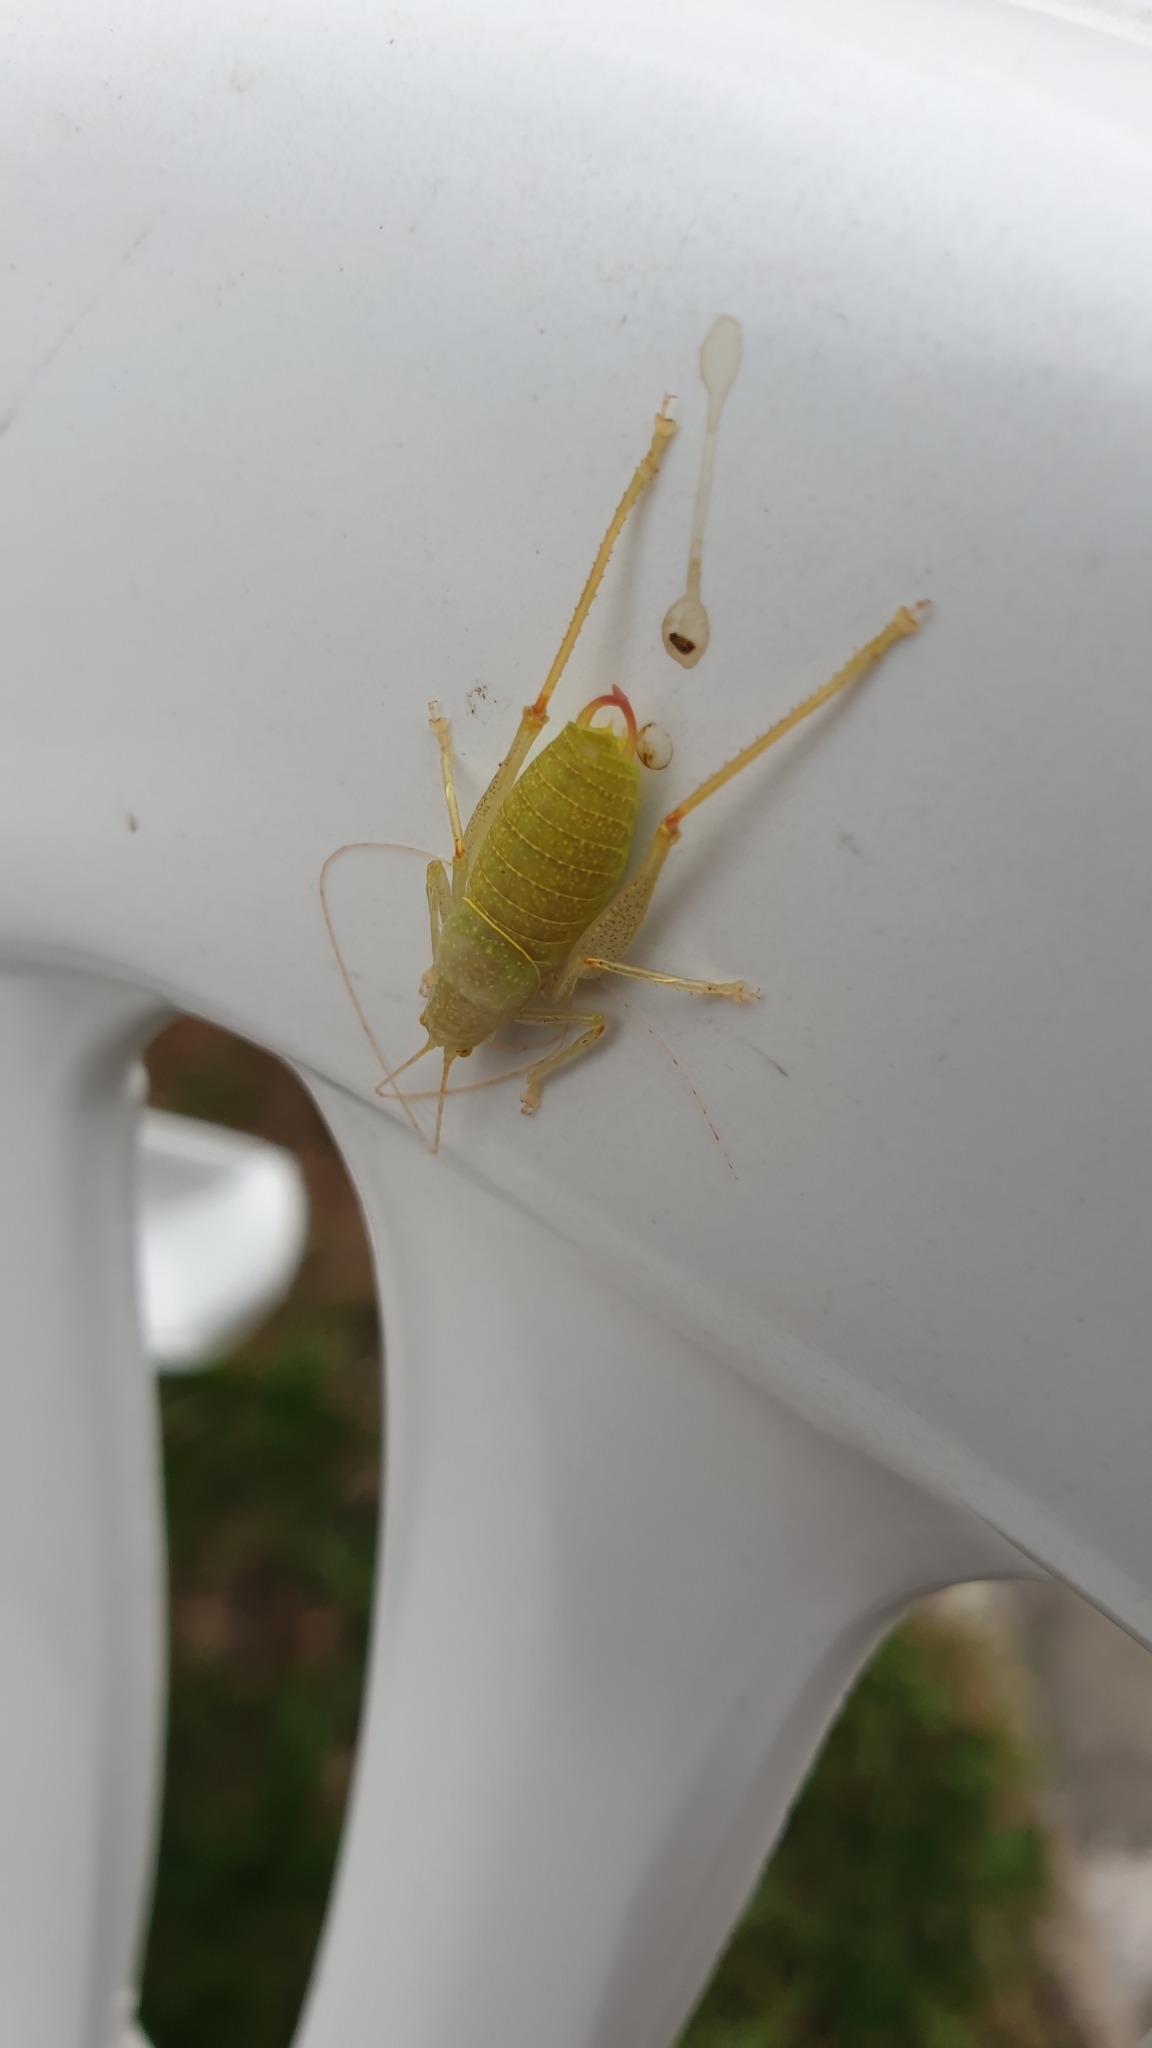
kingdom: Animalia
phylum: Arthropoda
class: Insecta
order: Orthoptera
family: Tettigoniidae
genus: Cyrtaspis
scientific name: Cyrtaspis scutata
